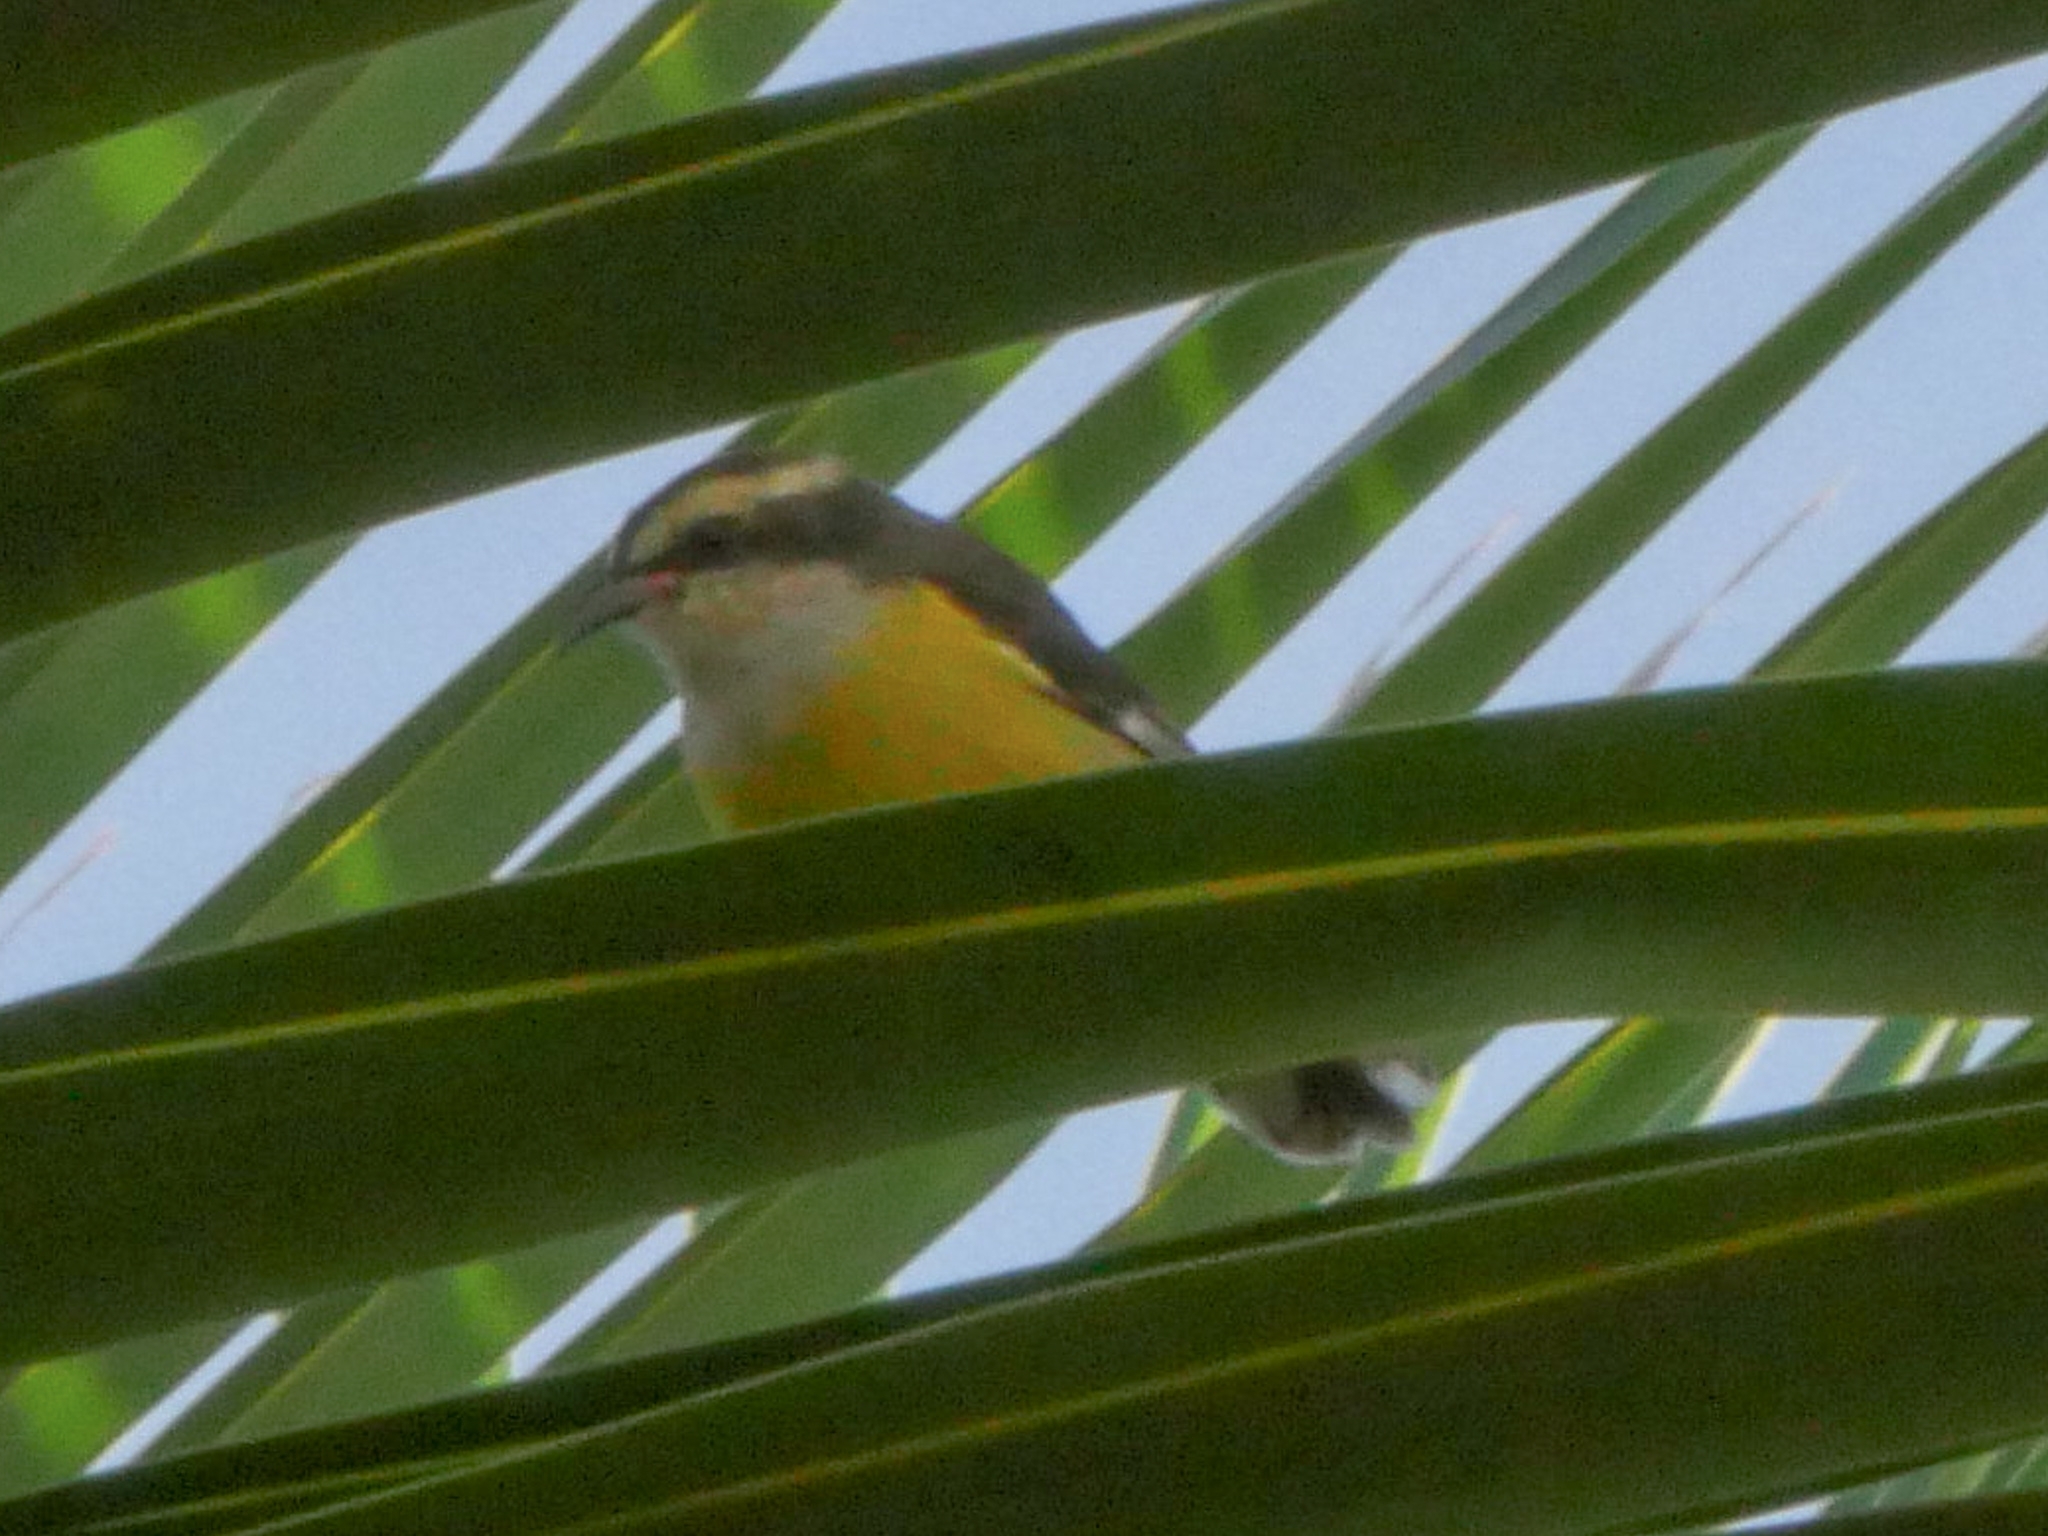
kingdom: Animalia
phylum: Chordata
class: Aves
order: Passeriformes
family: Thraupidae
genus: Coereba
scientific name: Coereba flaveola
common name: Bananaquit
